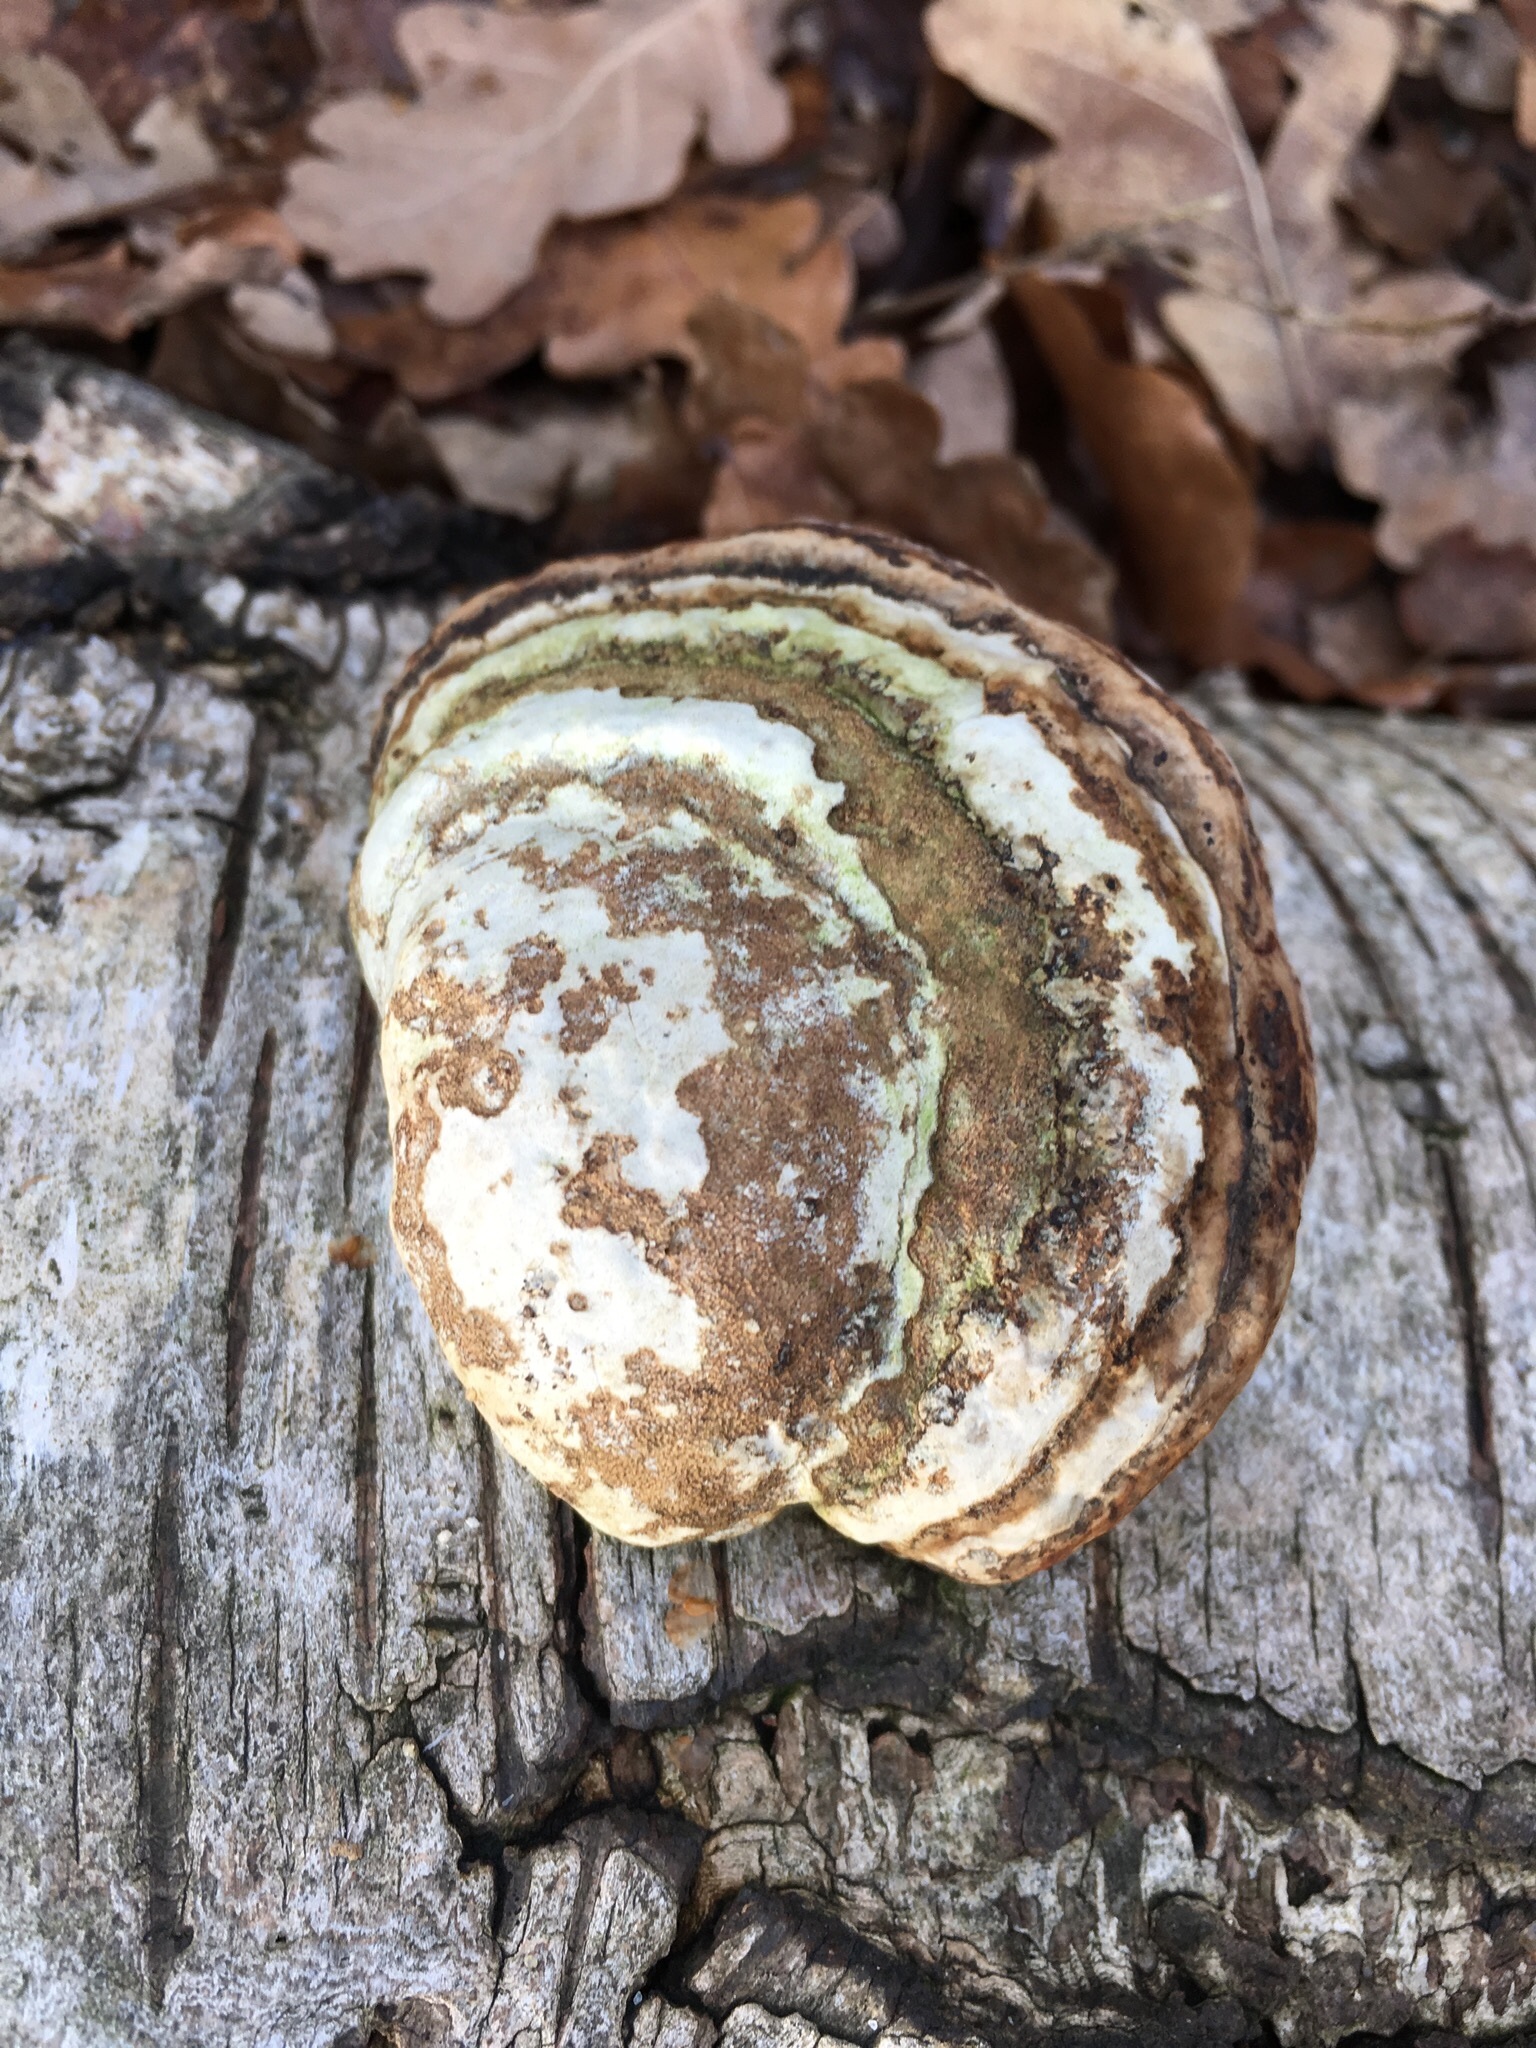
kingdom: Fungi
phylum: Basidiomycota
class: Agaricomycetes
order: Polyporales
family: Polyporaceae
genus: Fomes
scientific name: Fomes fomentarius
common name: Hoof fungus
